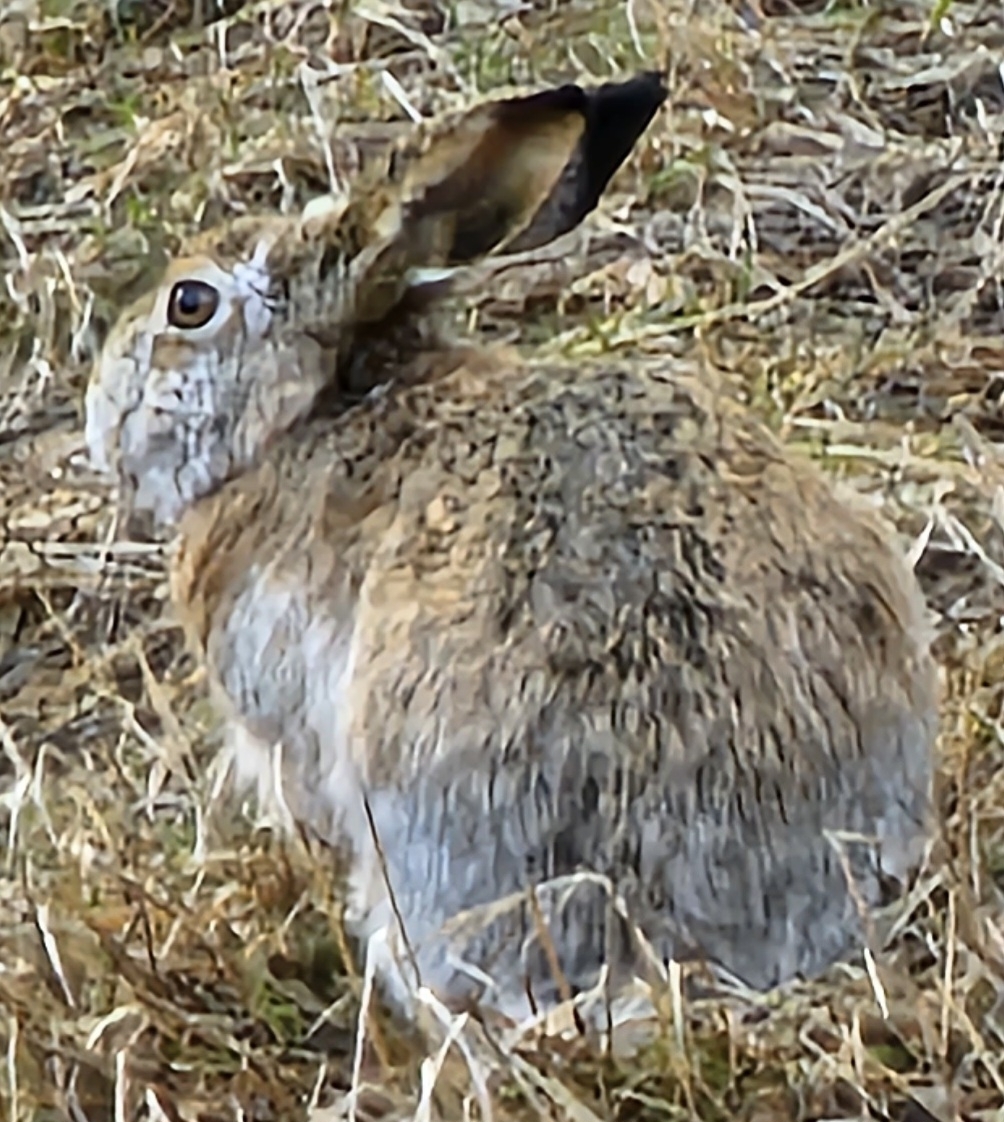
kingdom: Animalia
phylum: Chordata
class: Mammalia
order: Lagomorpha
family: Leporidae
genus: Lepus
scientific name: Lepus europaeus
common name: European hare
